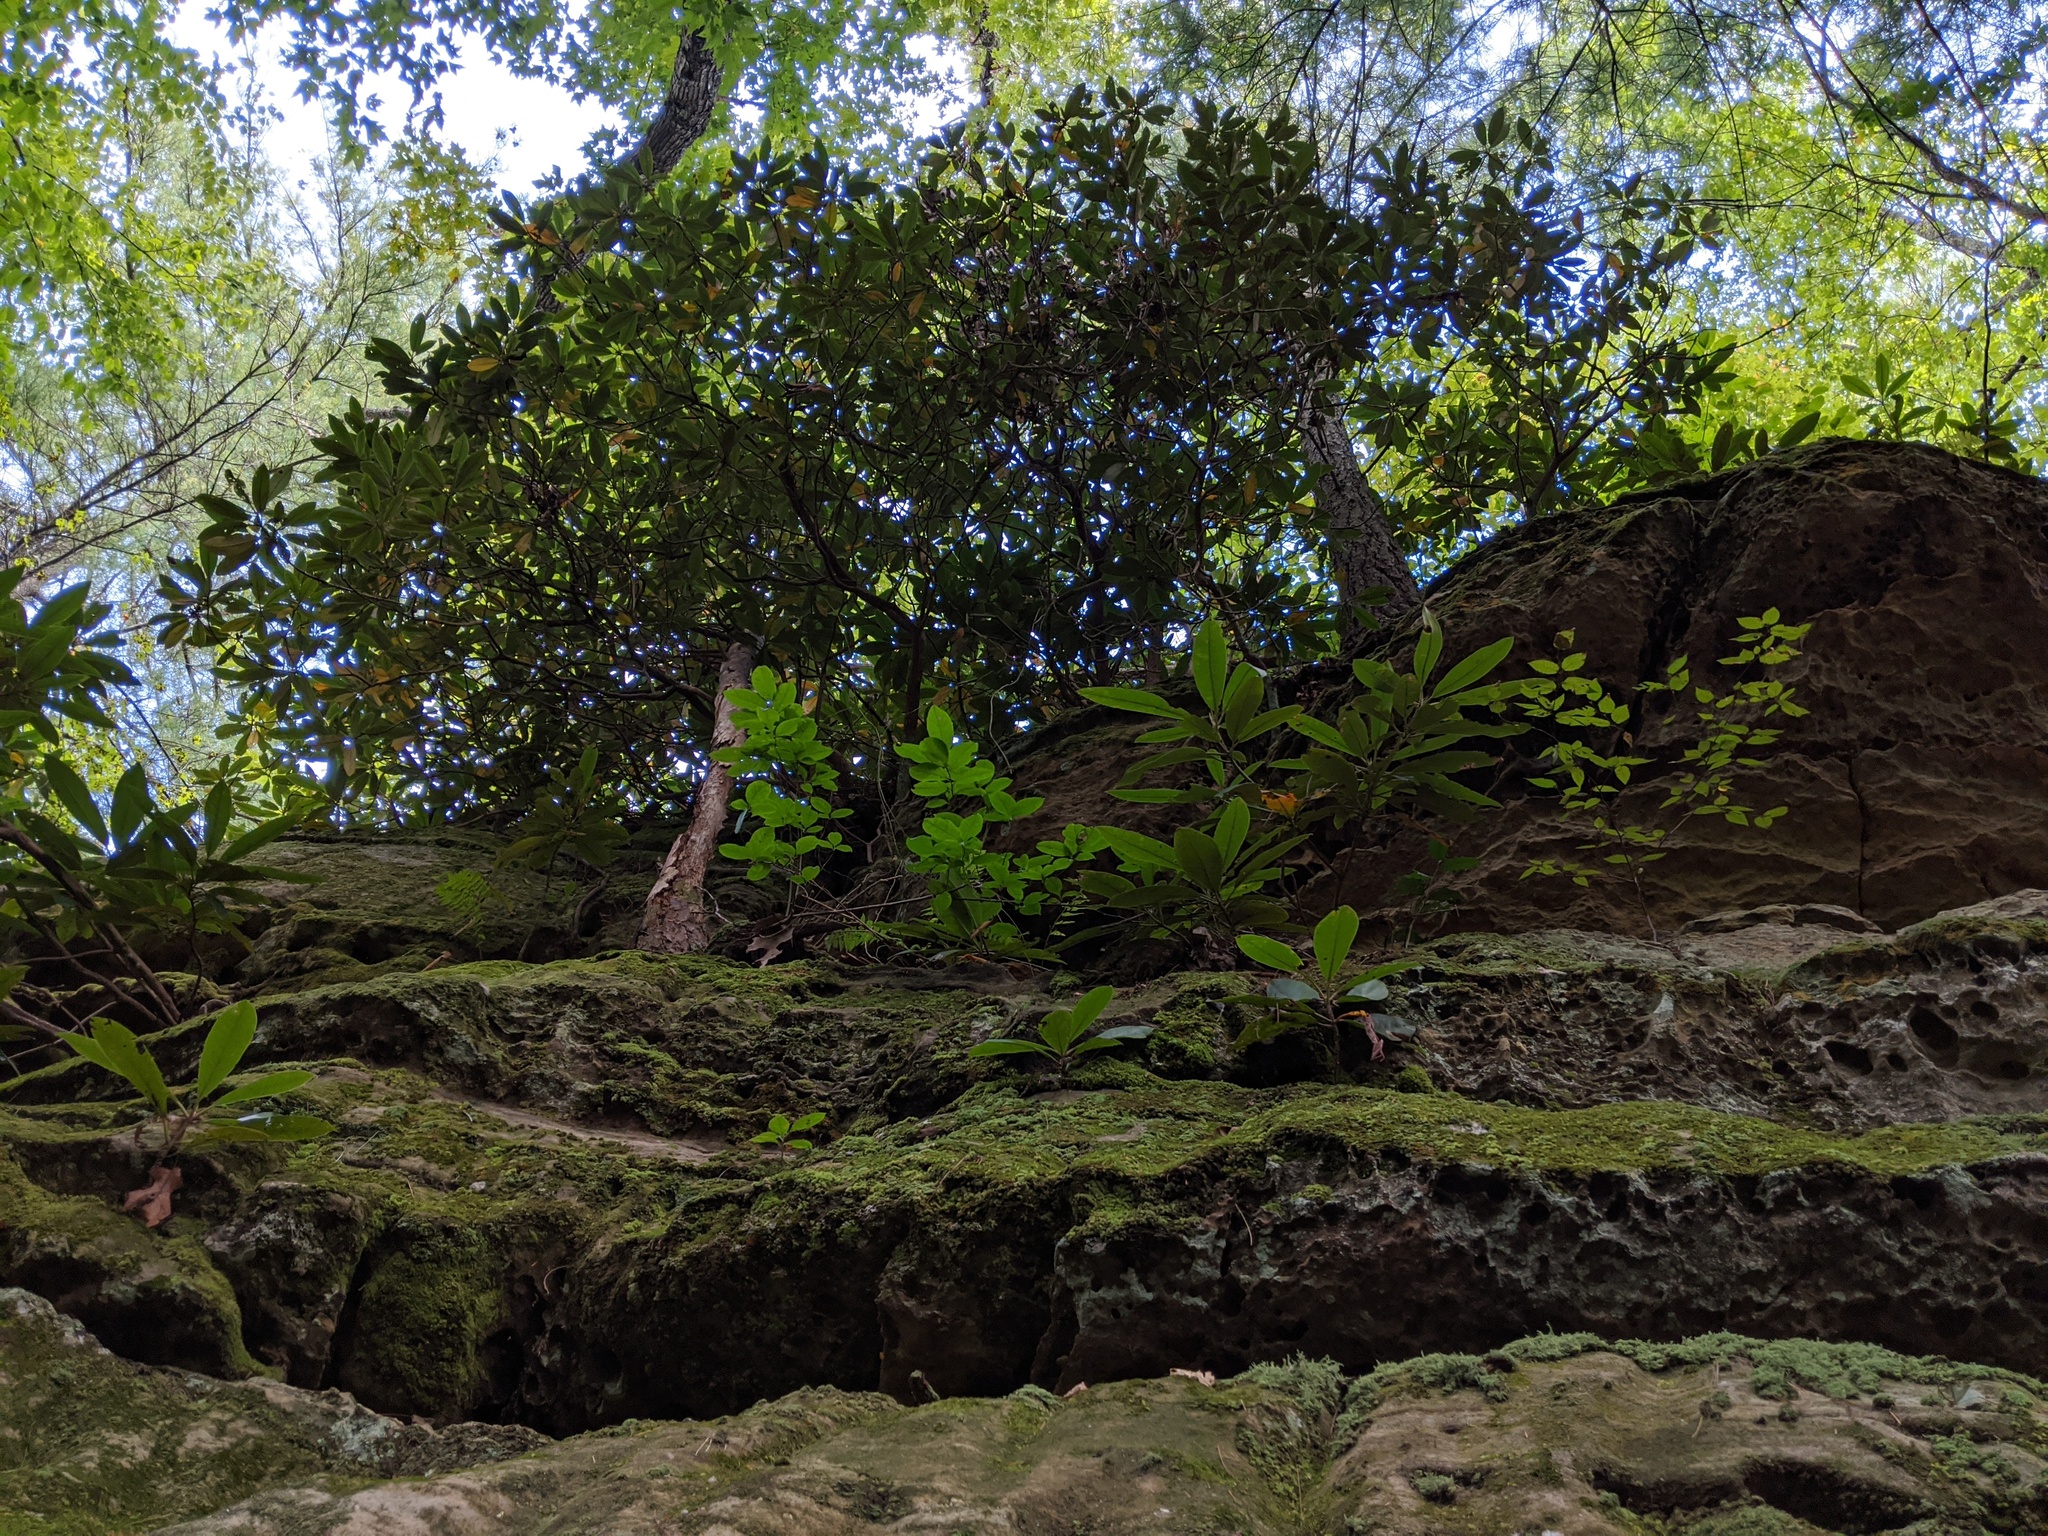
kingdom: Plantae
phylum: Tracheophyta
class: Magnoliopsida
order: Ericales
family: Ericaceae
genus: Rhododendron
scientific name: Rhododendron maximum
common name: Great rhododendron
